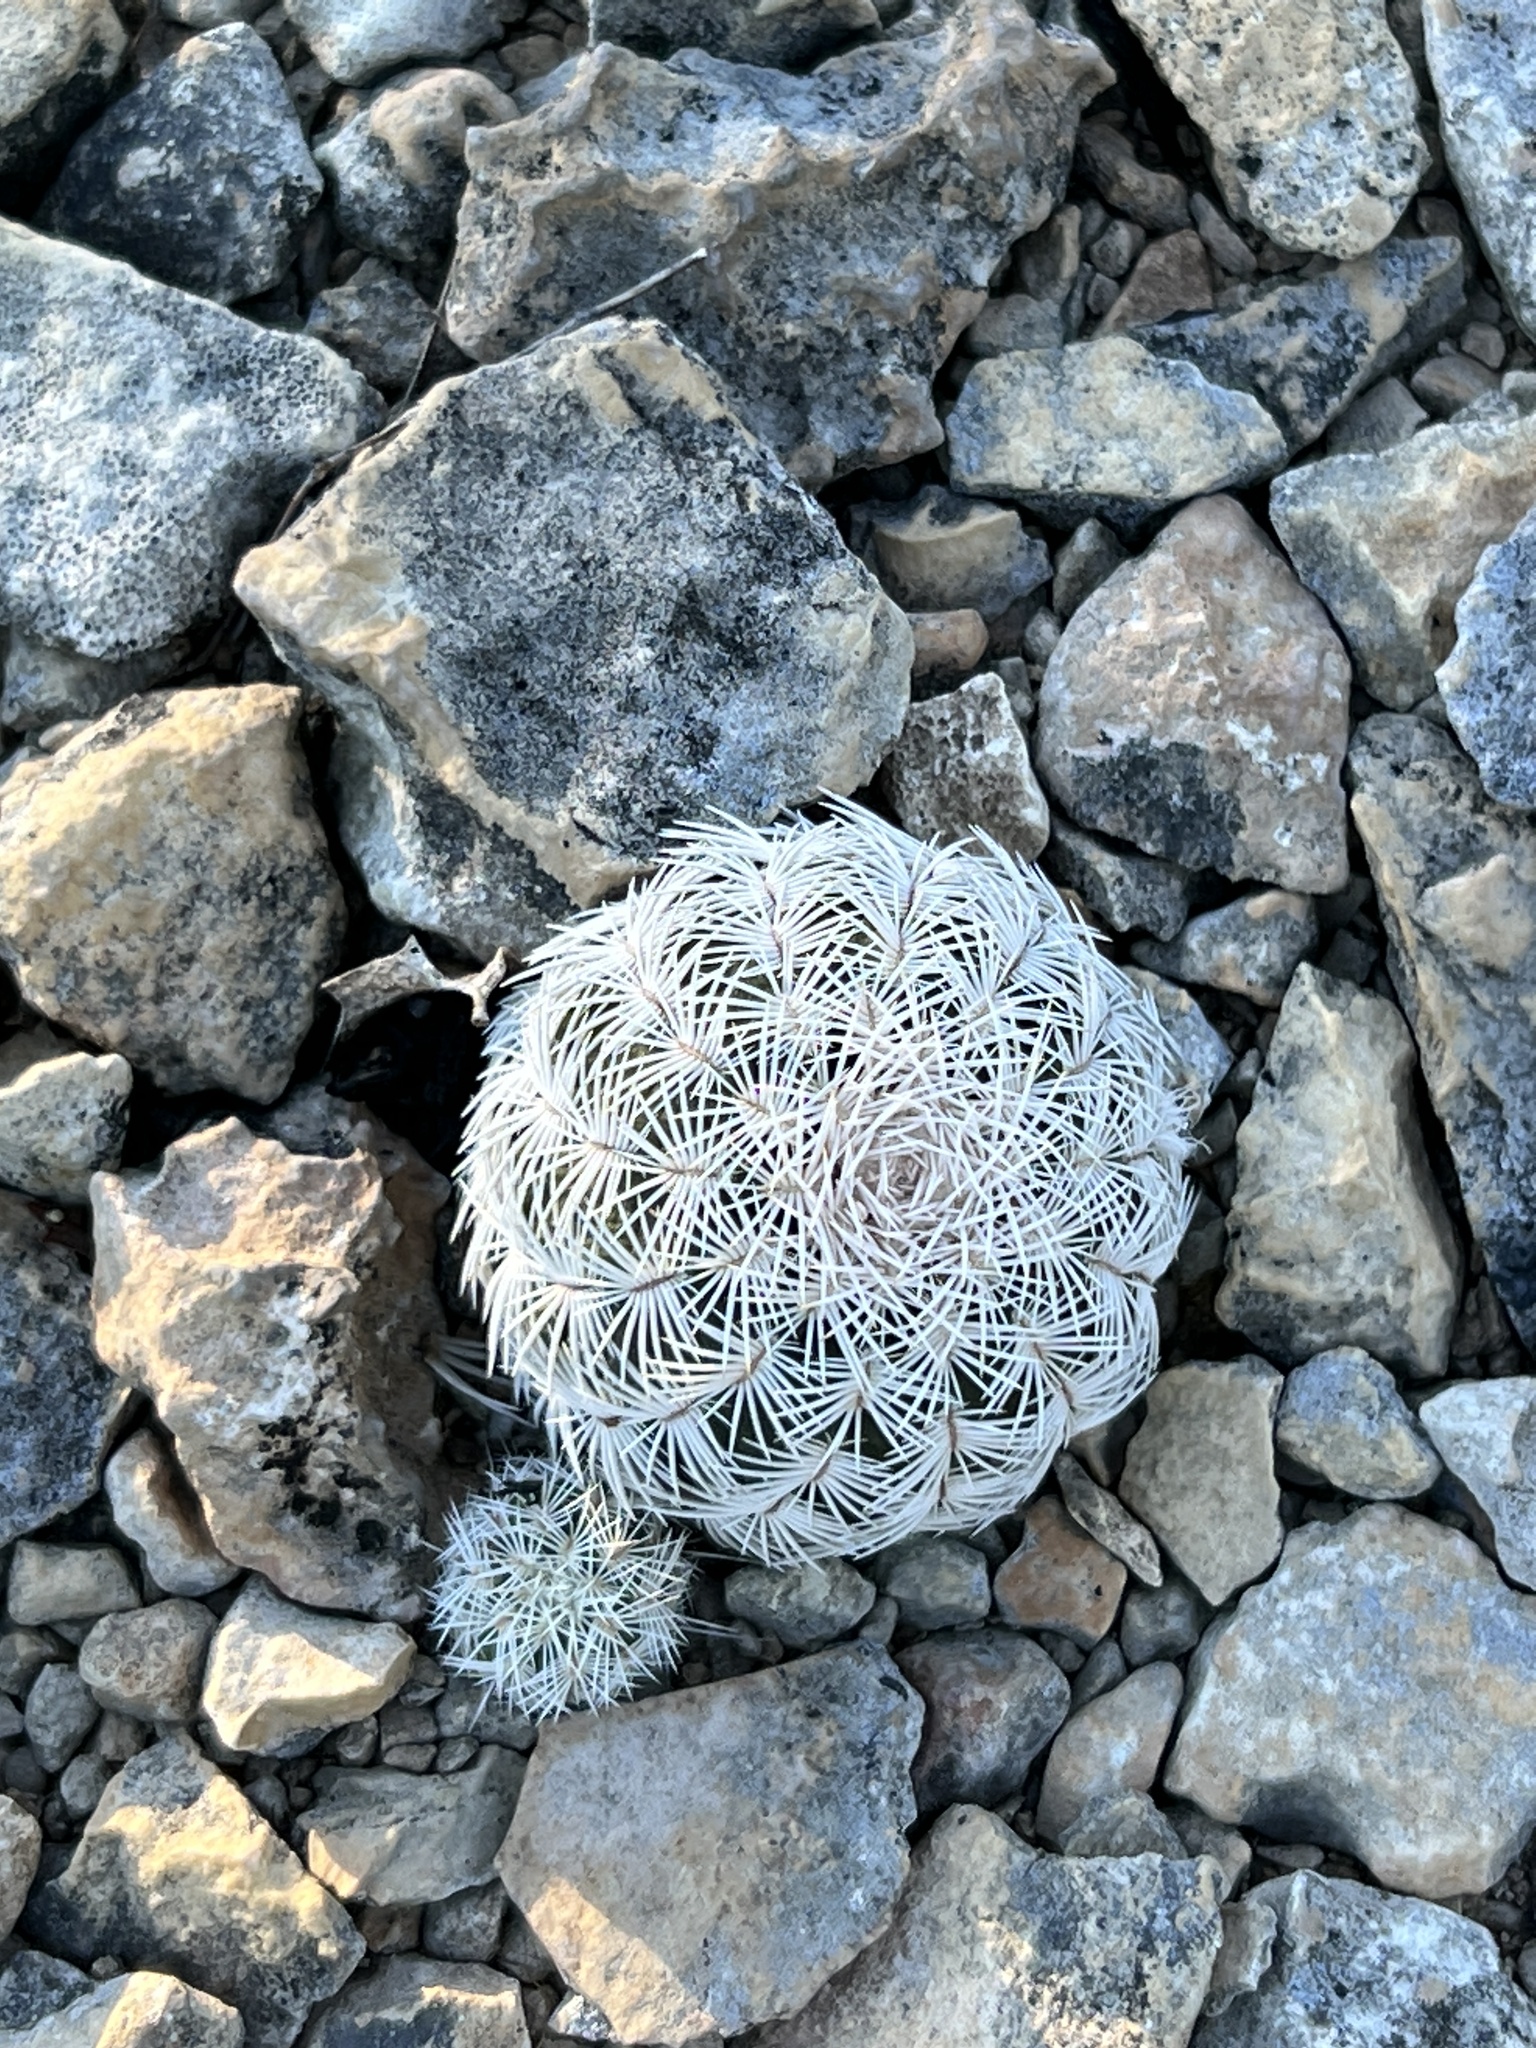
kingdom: Plantae
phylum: Tracheophyta
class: Magnoliopsida
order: Caryophyllales
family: Cactaceae
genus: Echinocereus
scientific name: Echinocereus reichenbachii
